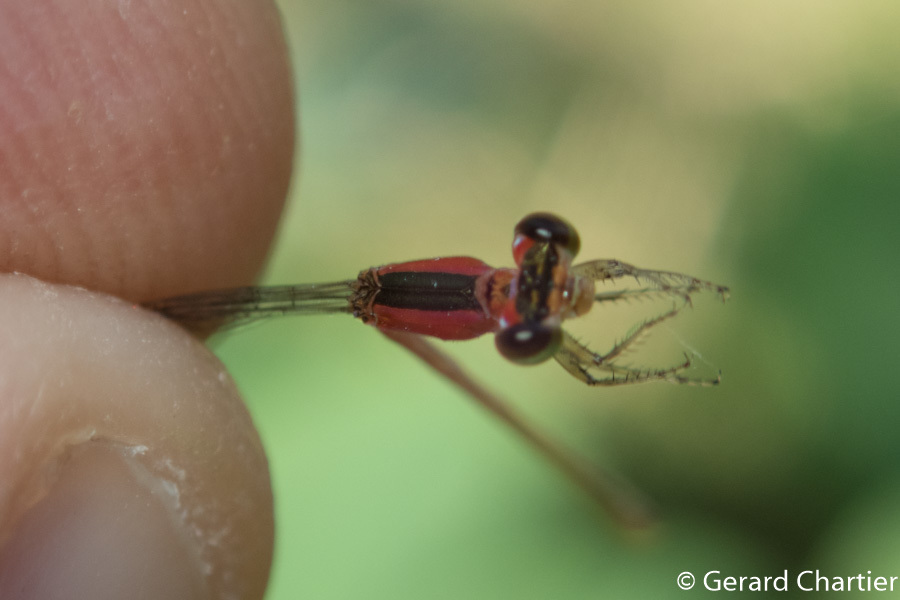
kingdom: Animalia
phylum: Arthropoda
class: Insecta
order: Odonata
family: Coenagrionidae
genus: Agriocnemis
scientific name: Agriocnemis minima
